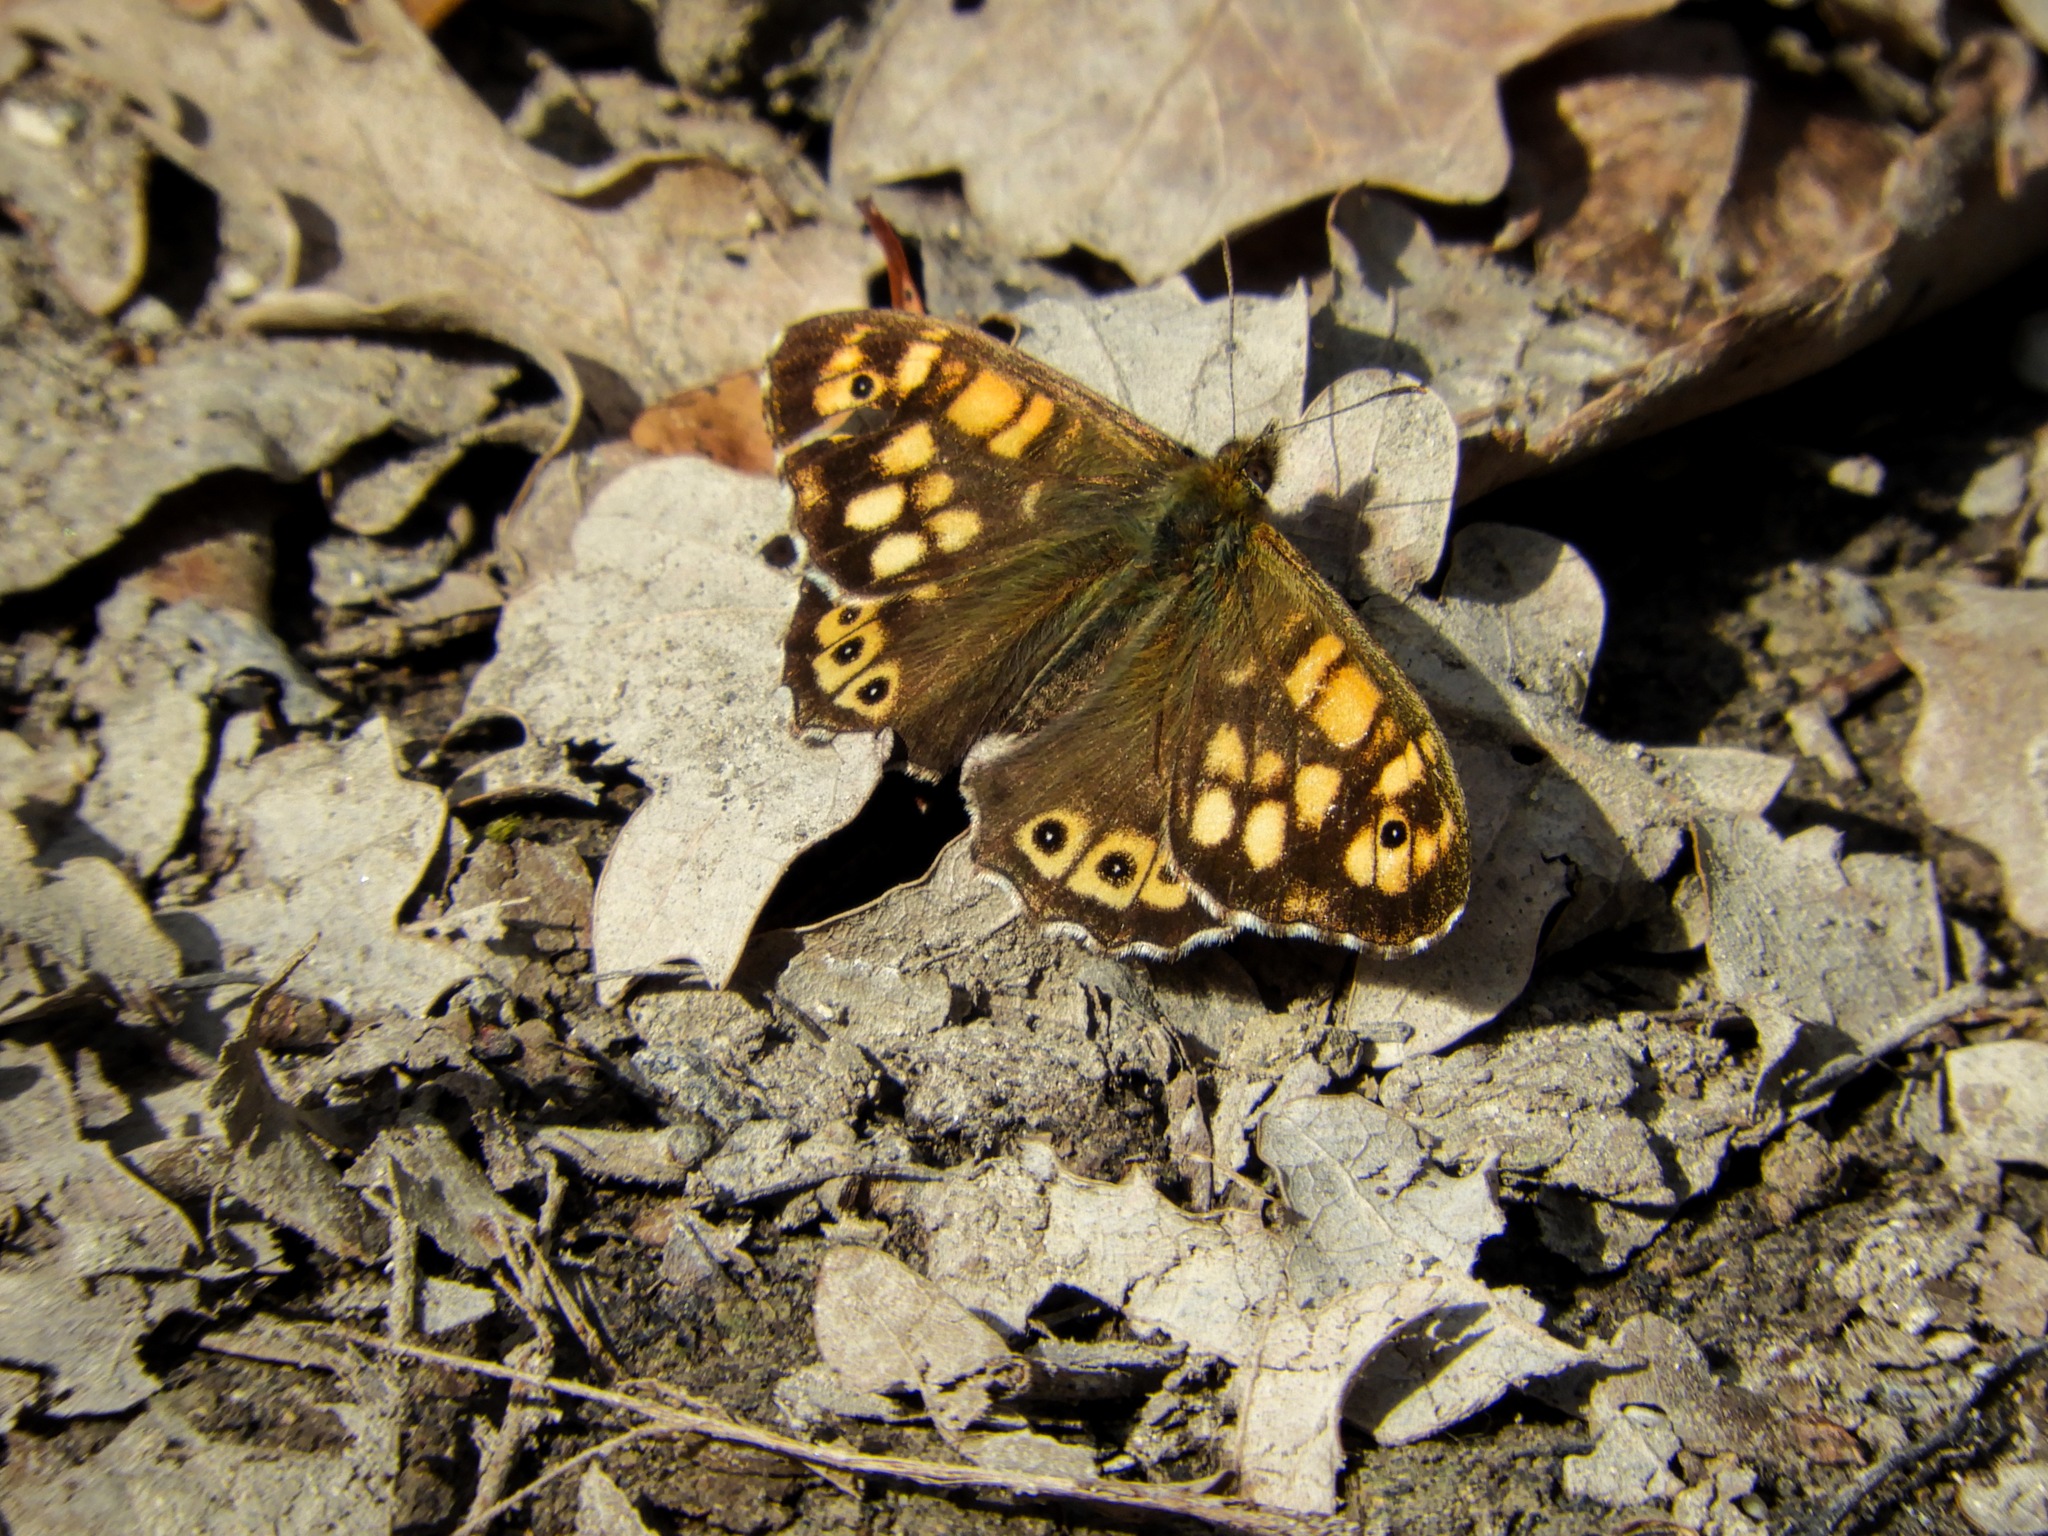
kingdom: Animalia
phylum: Arthropoda
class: Insecta
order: Lepidoptera
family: Nymphalidae
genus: Pararge
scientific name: Pararge aegeria
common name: Speckled wood
